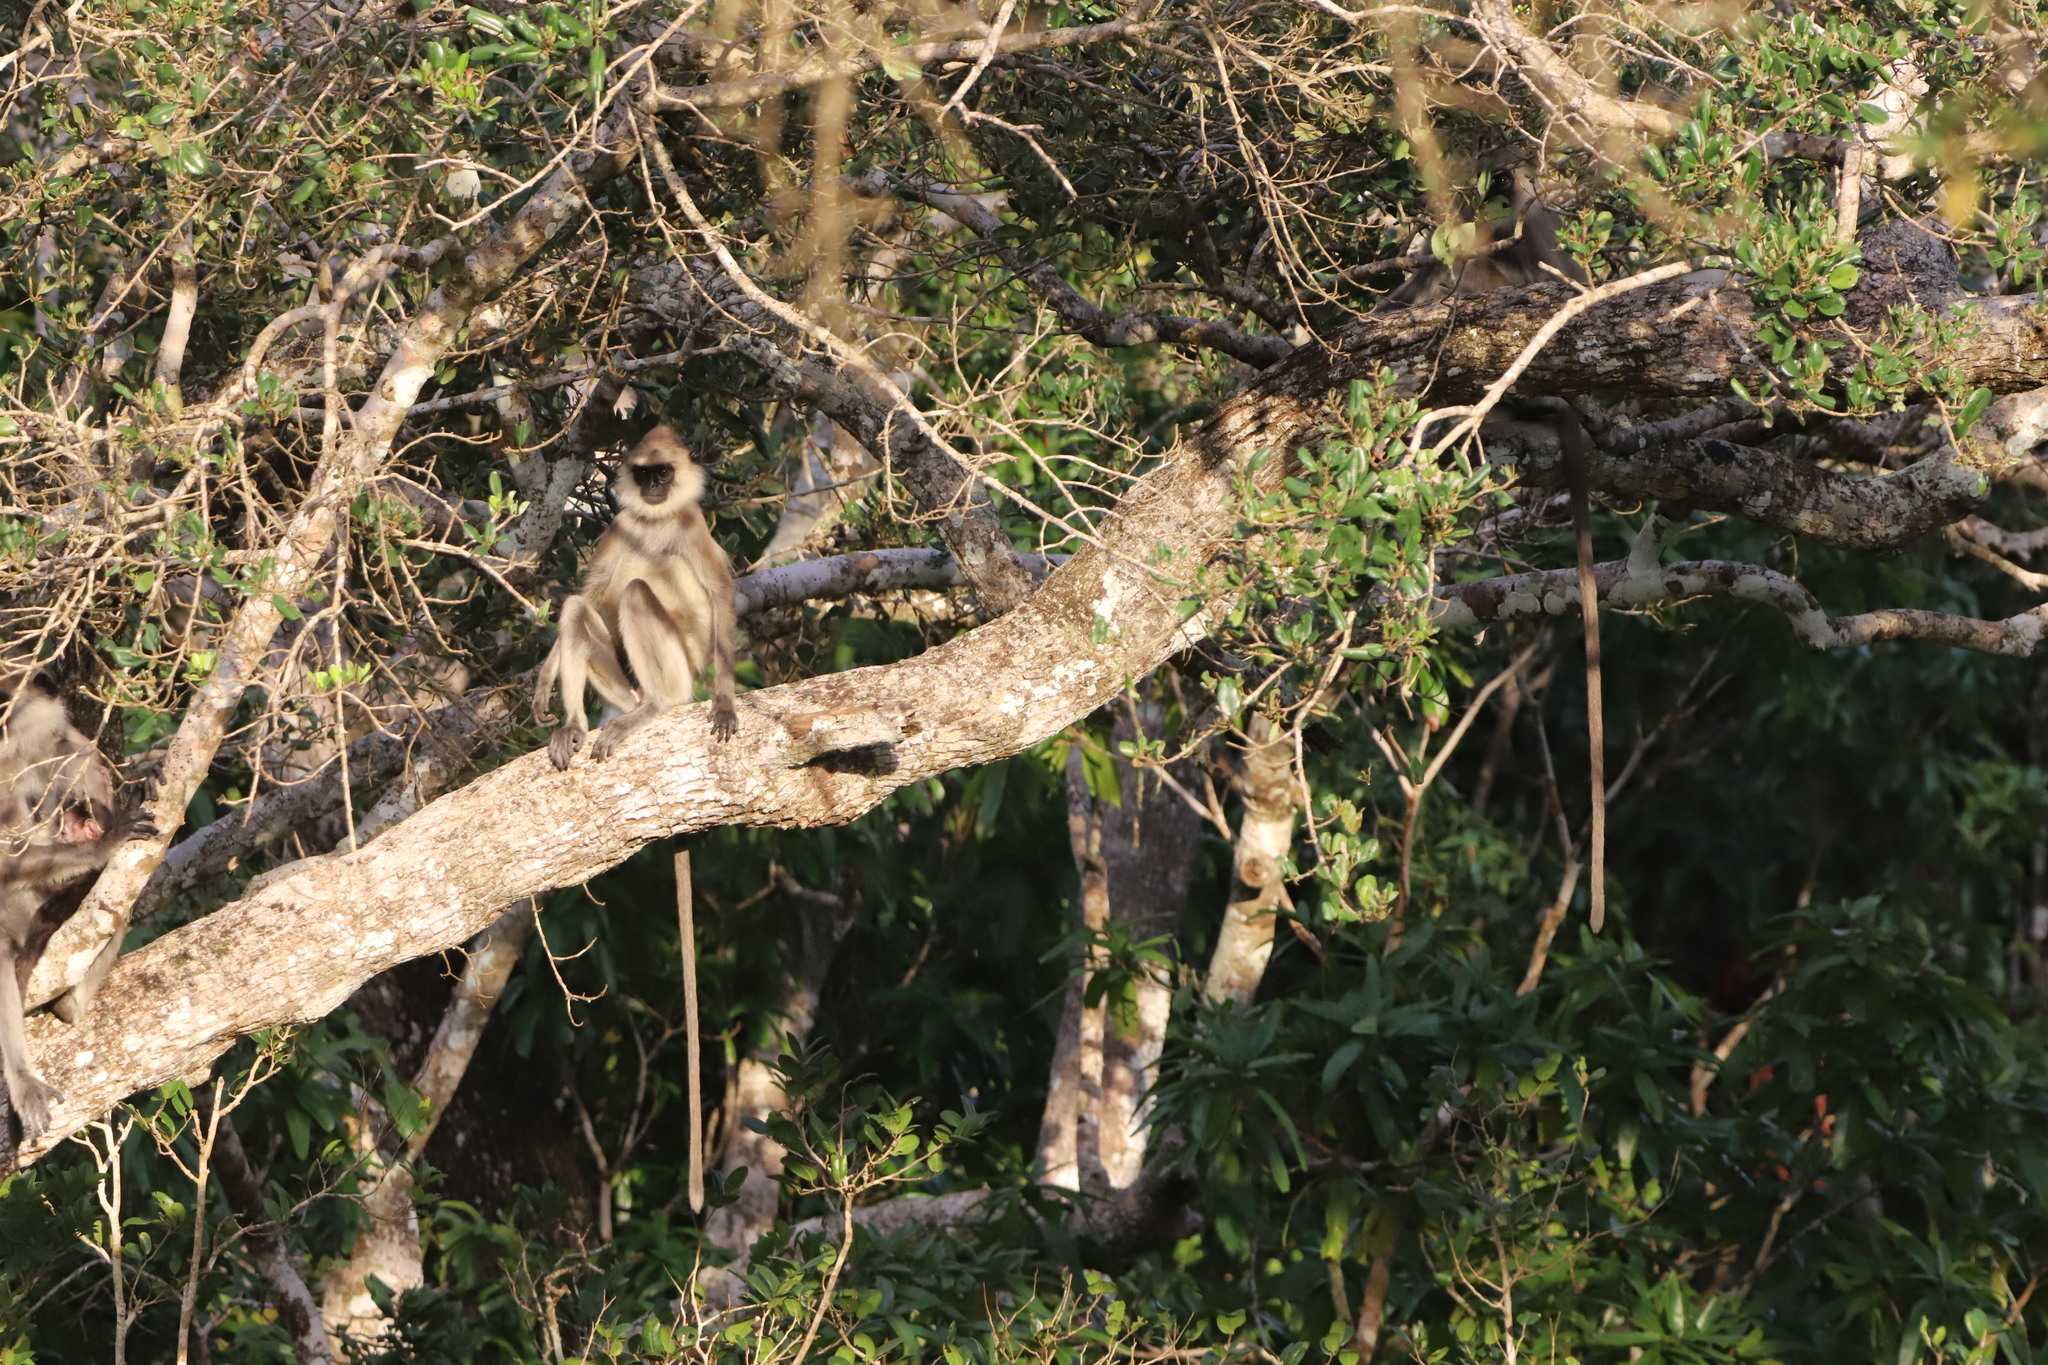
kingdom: Animalia
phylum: Chordata
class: Mammalia
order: Primates
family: Cercopithecidae
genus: Semnopithecus
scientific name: Semnopithecus priam
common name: Tufted gray langur
